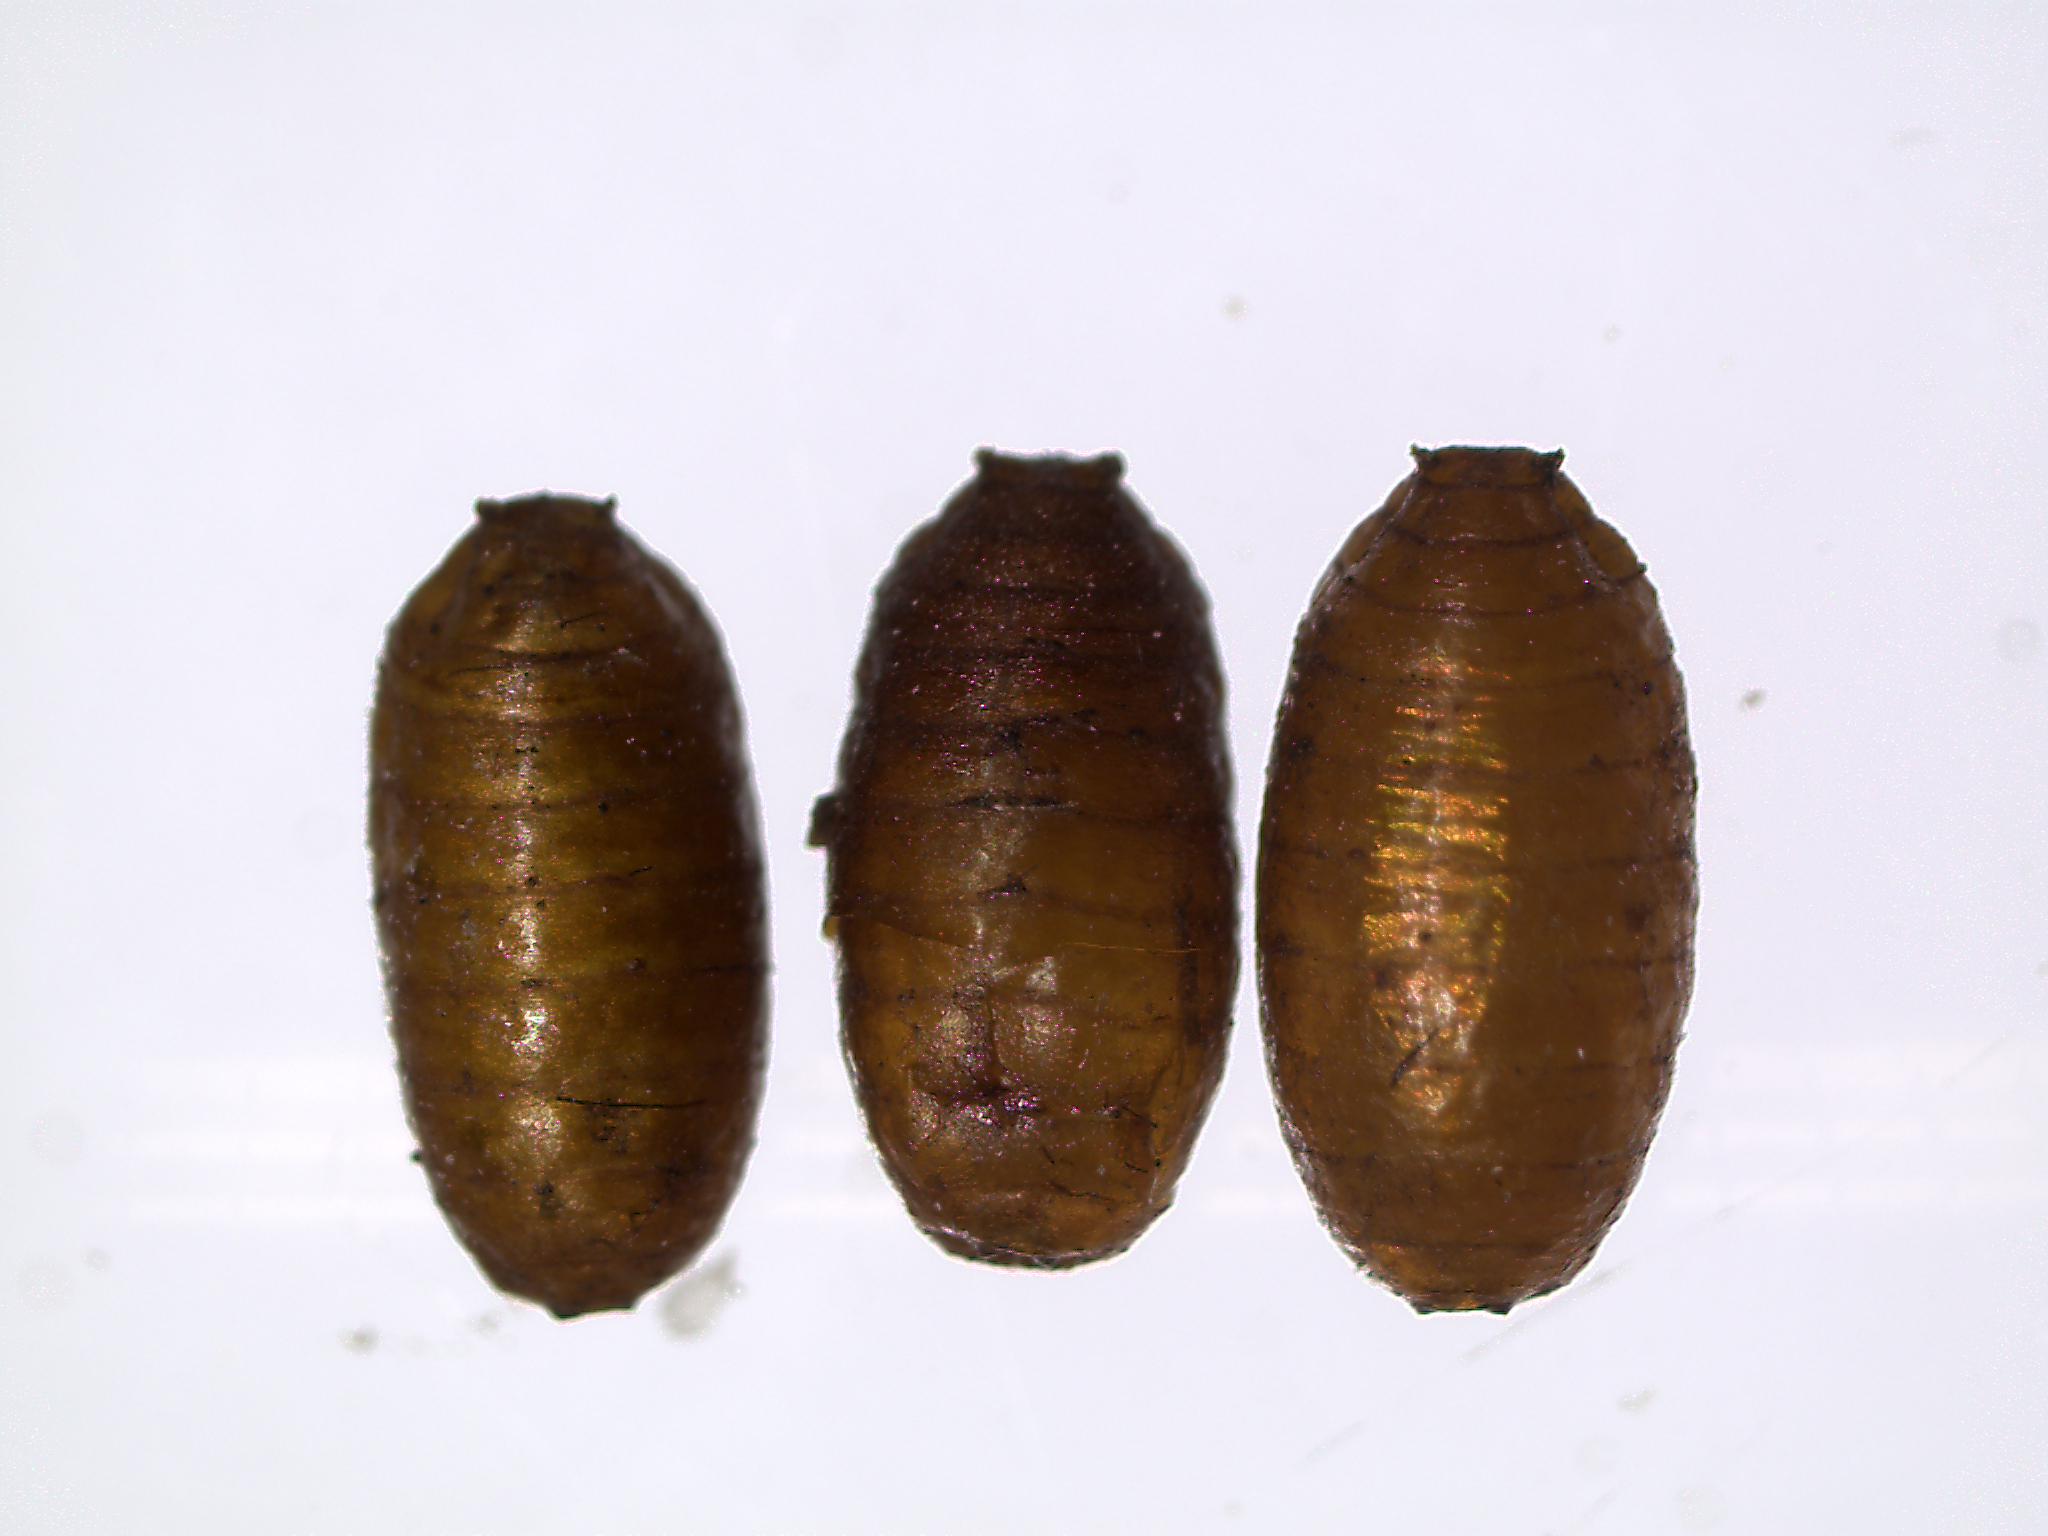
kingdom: Animalia
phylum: Arthropoda
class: Insecta
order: Diptera
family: Tephritidae
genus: Rhagoletis
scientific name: Rhagoletis cingulata
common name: North american cherry fruit fly
